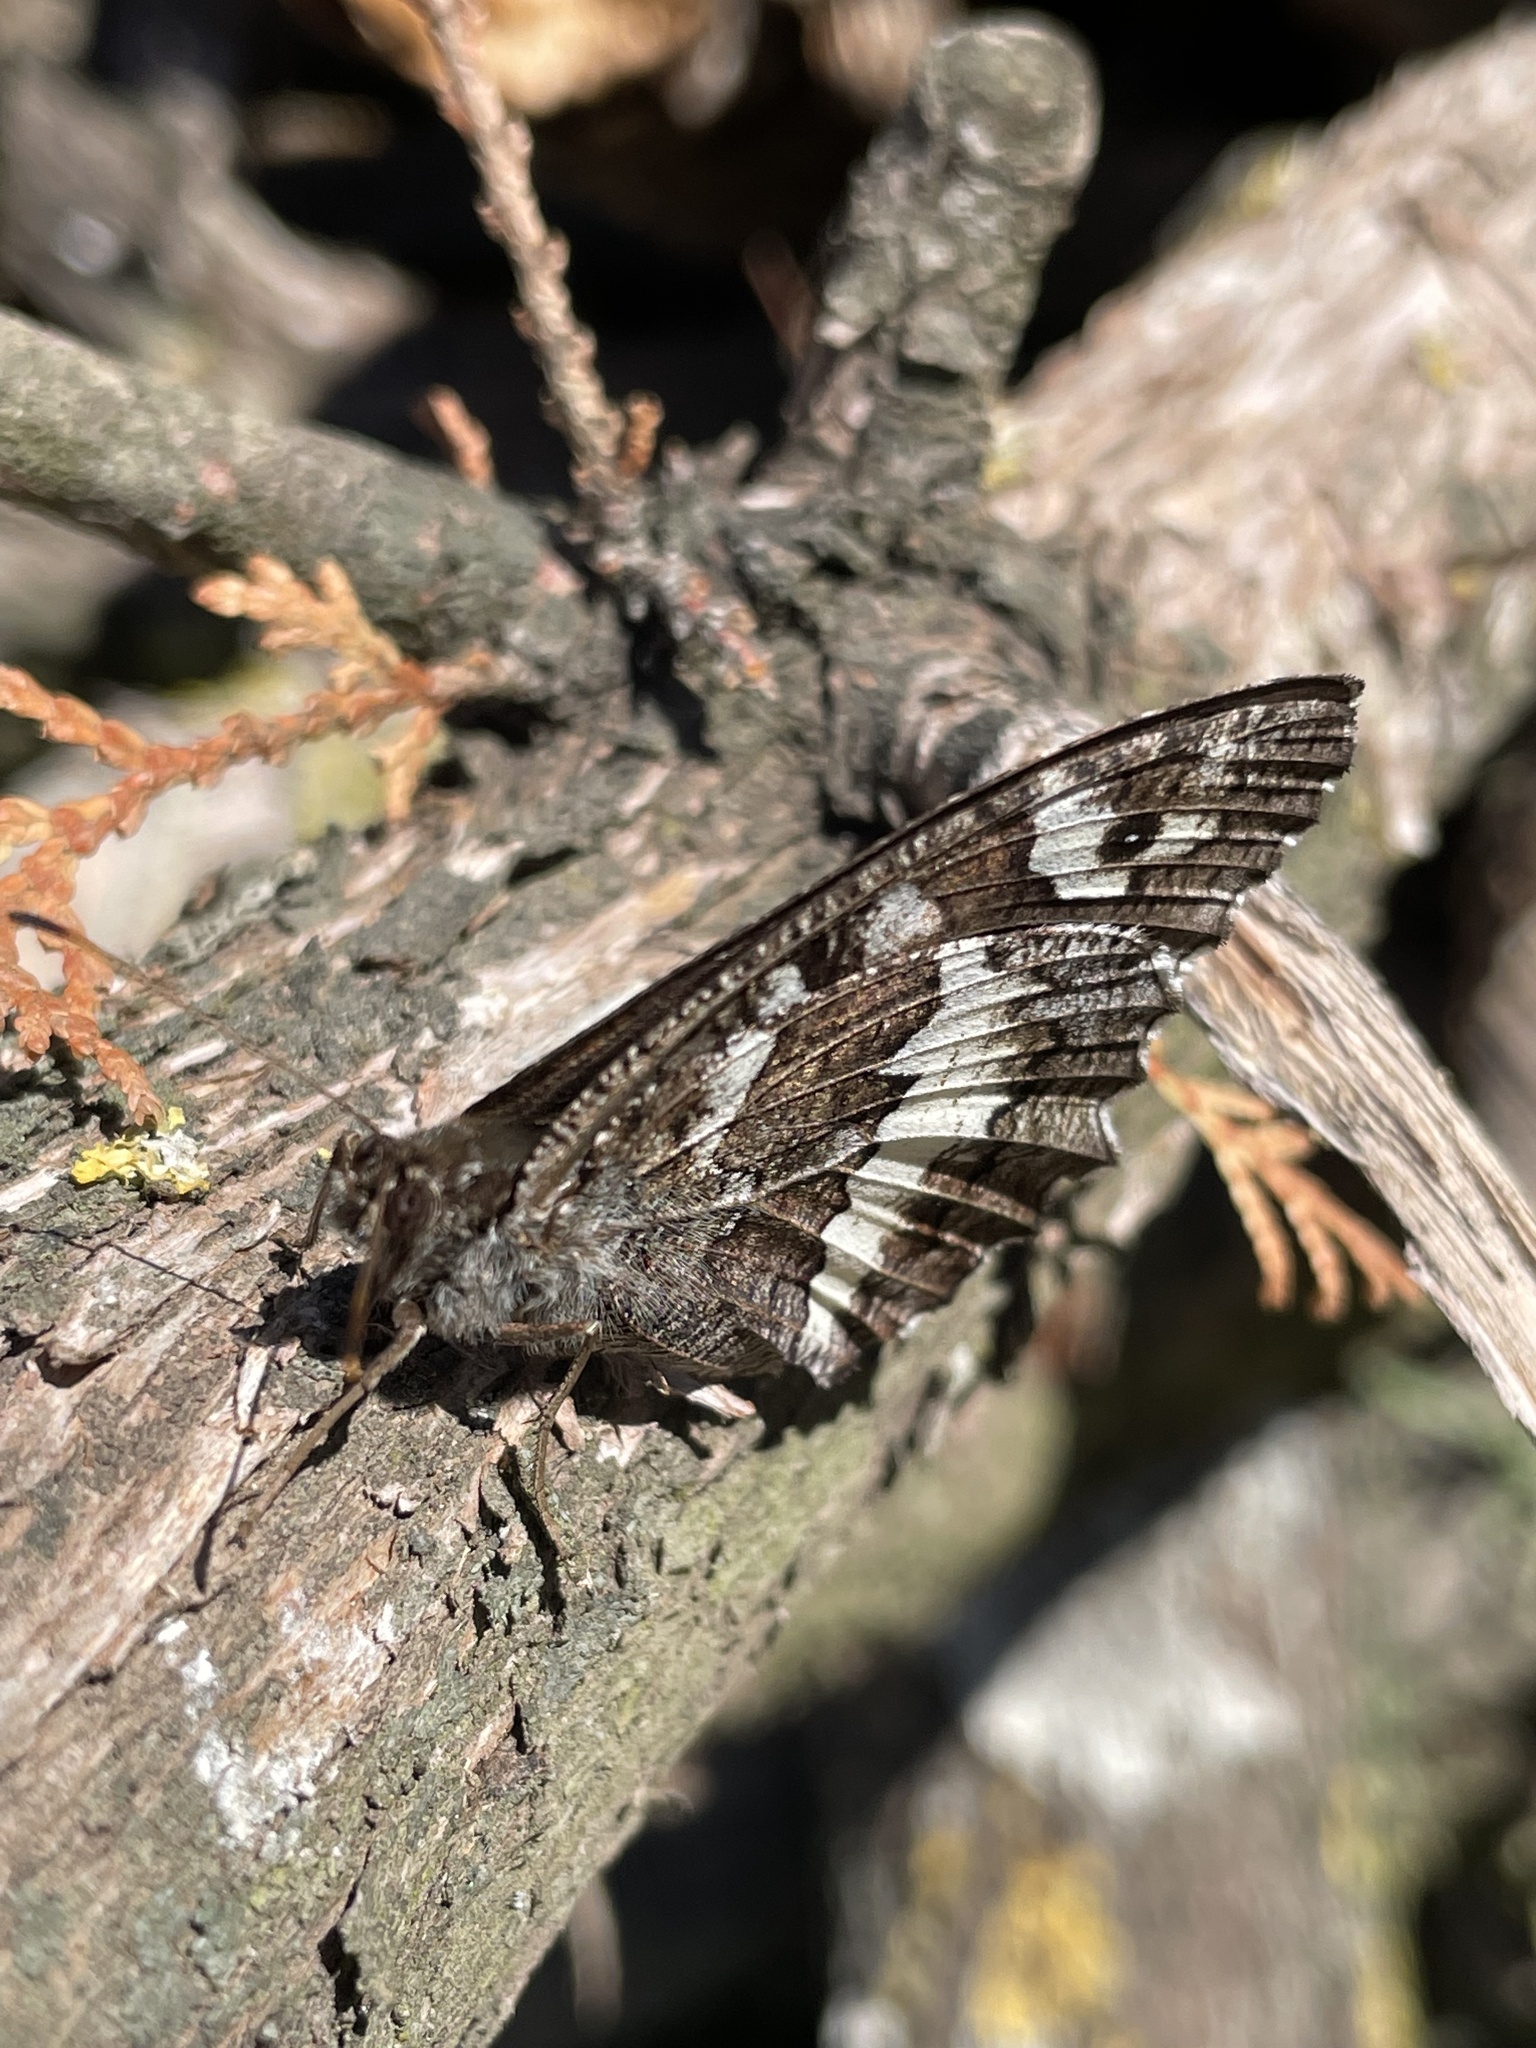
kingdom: Animalia
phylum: Arthropoda
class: Insecta
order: Lepidoptera
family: Lycaenidae
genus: Loweia
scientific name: Loweia tityrus
